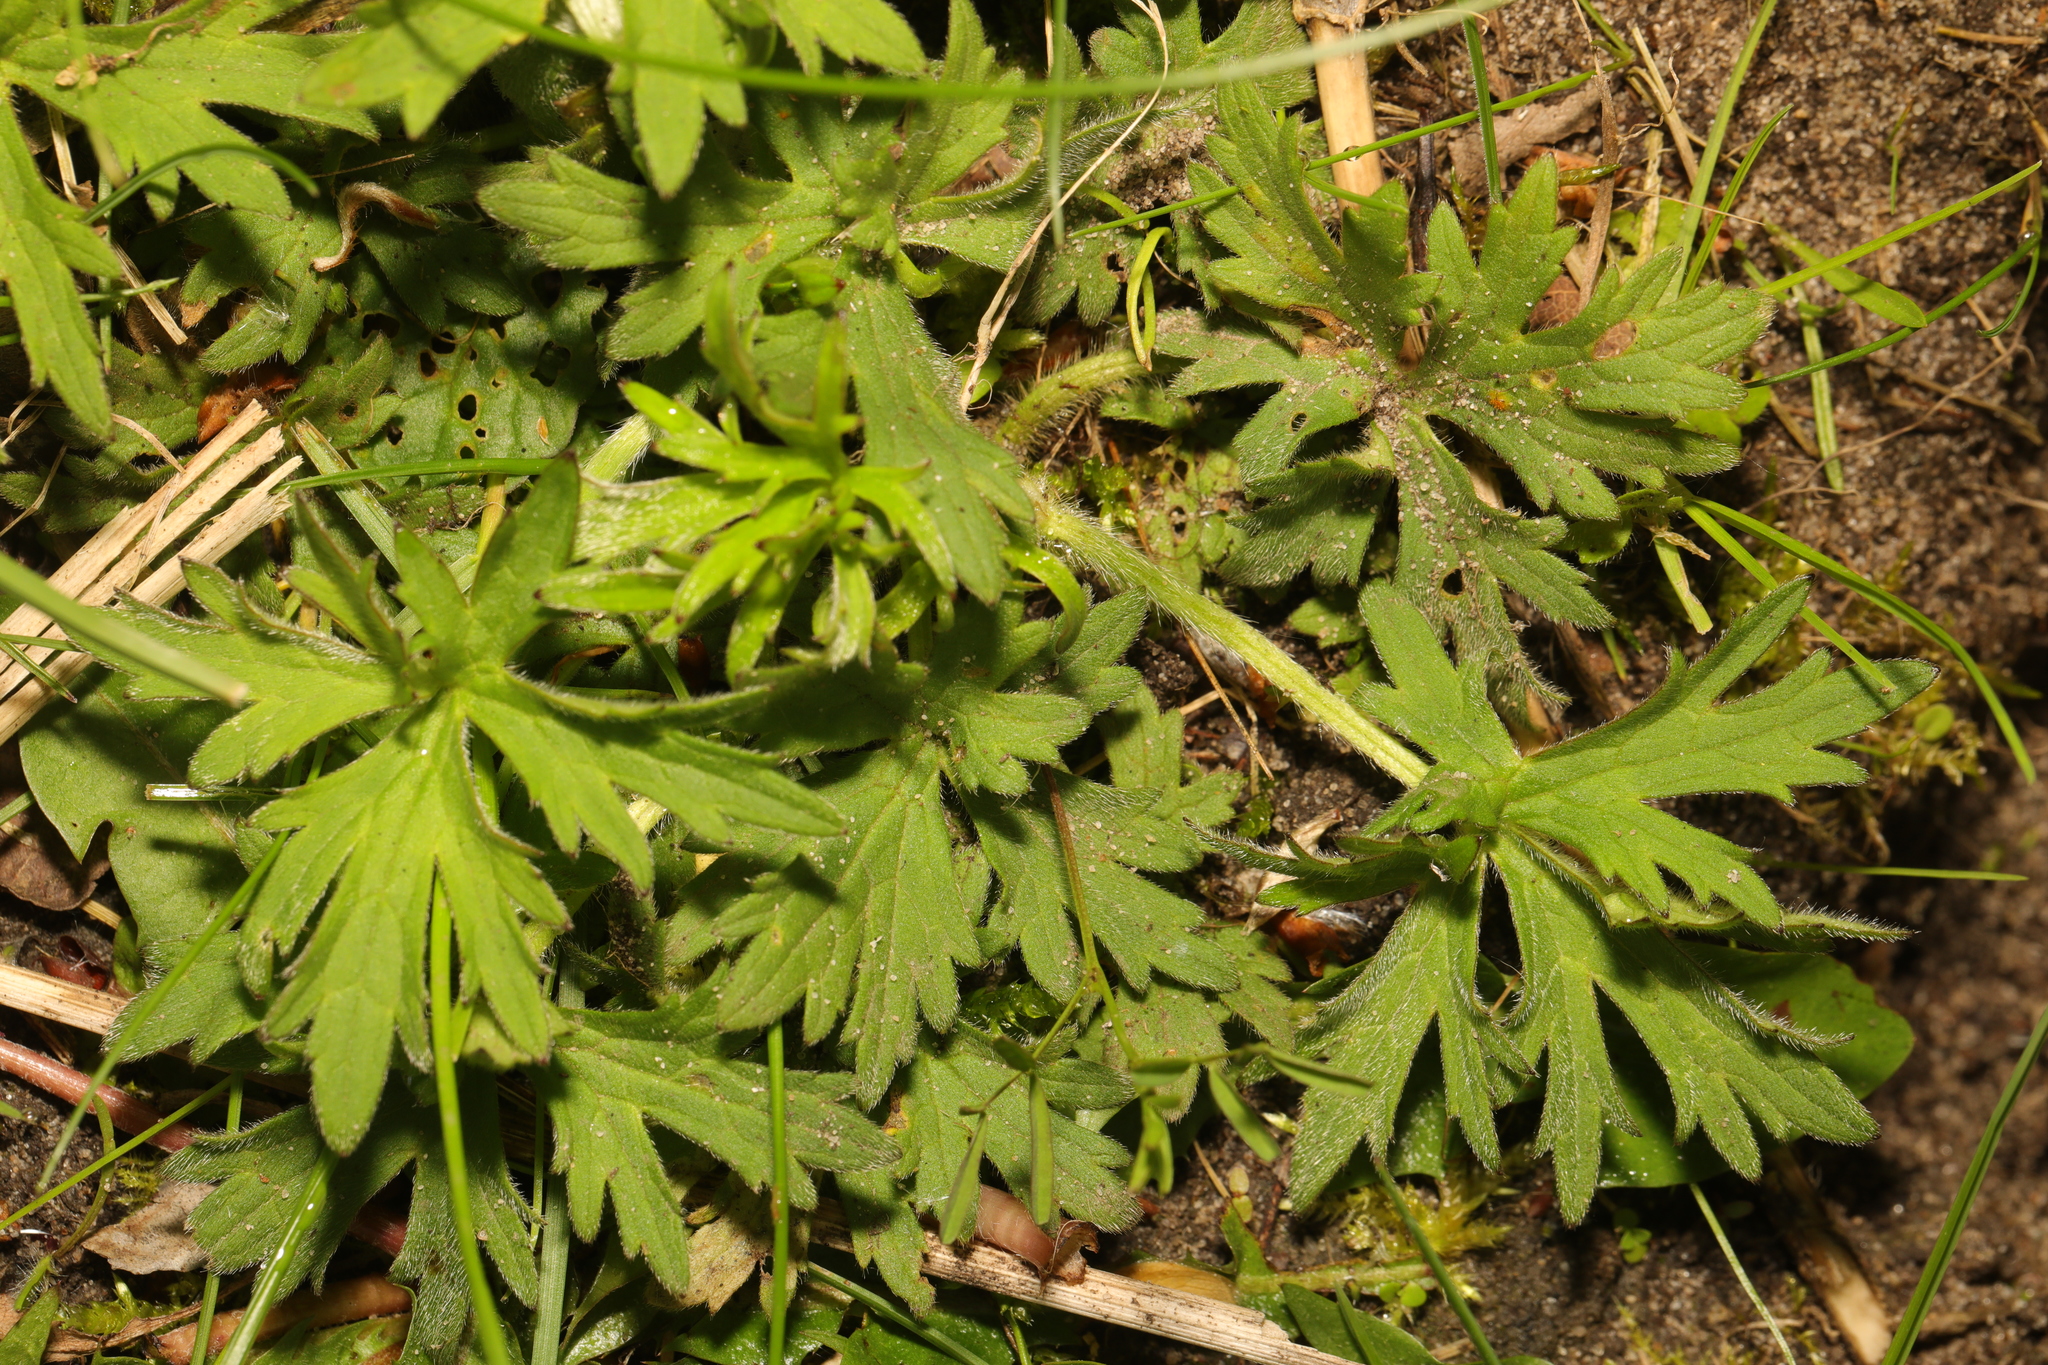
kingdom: Plantae
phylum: Tracheophyta
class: Magnoliopsida
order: Ranunculales
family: Ranunculaceae
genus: Ranunculus
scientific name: Ranunculus acris
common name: Meadow buttercup
